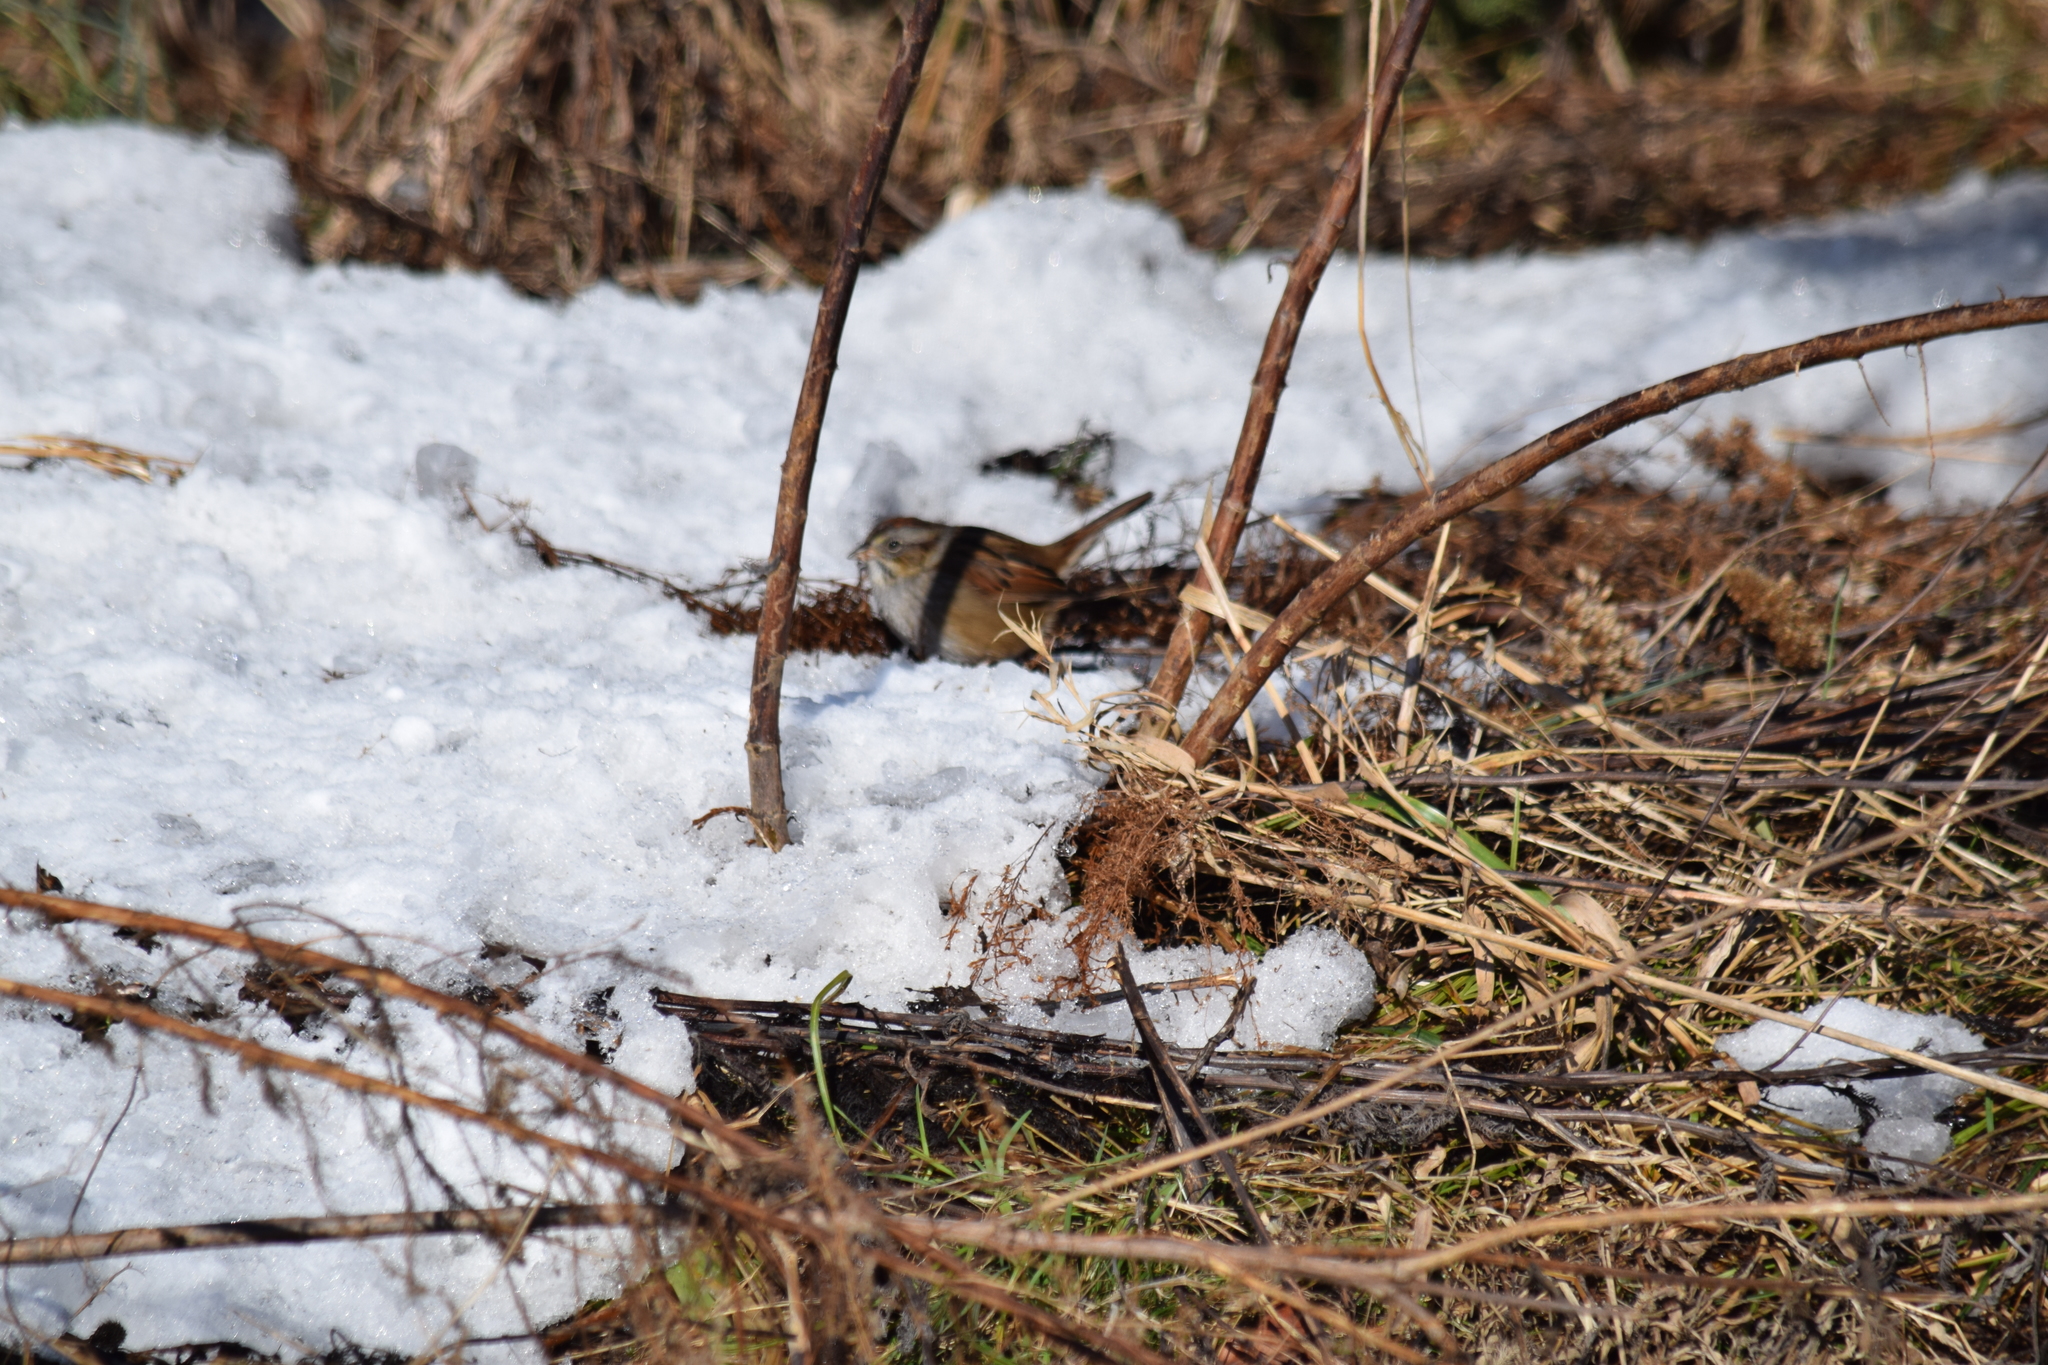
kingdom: Animalia
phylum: Chordata
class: Aves
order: Passeriformes
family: Passerellidae
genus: Melospiza
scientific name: Melospiza georgiana
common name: Swamp sparrow
